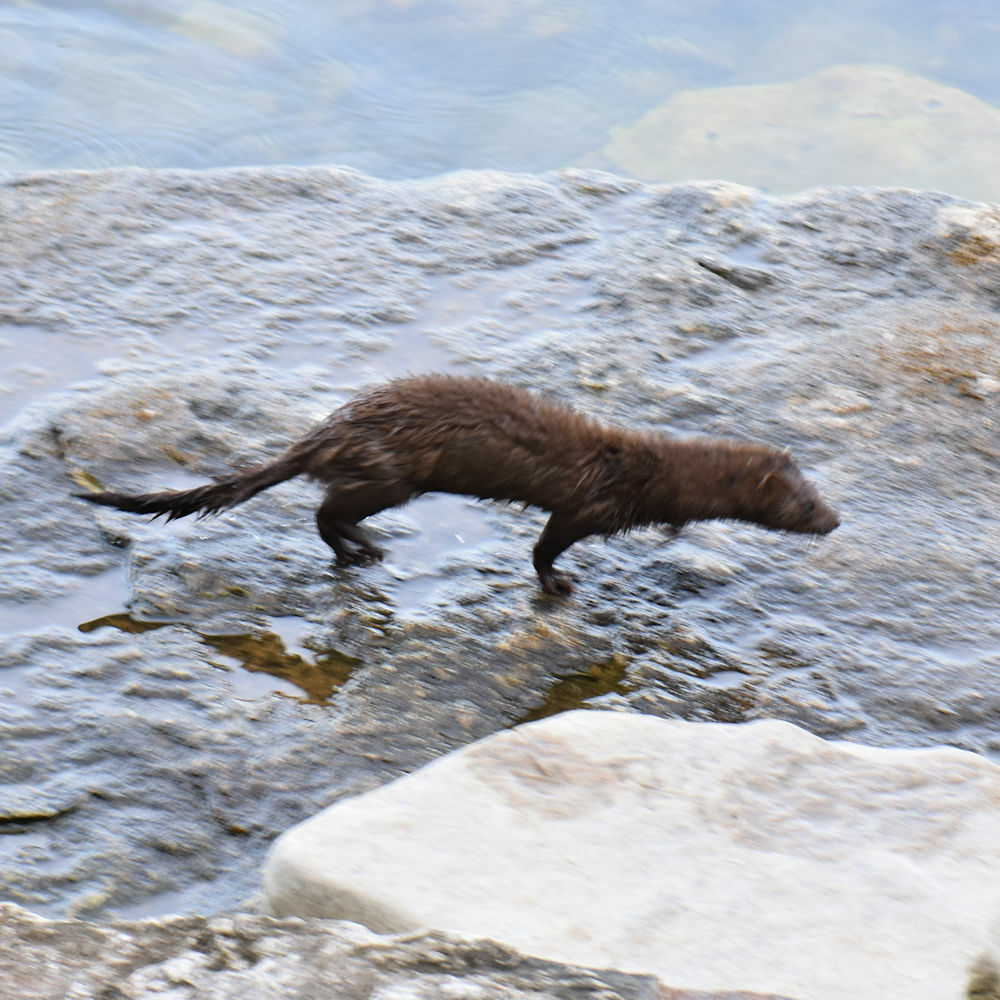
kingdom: Animalia
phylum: Chordata
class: Mammalia
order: Carnivora
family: Mustelidae
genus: Mustela
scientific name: Mustela
